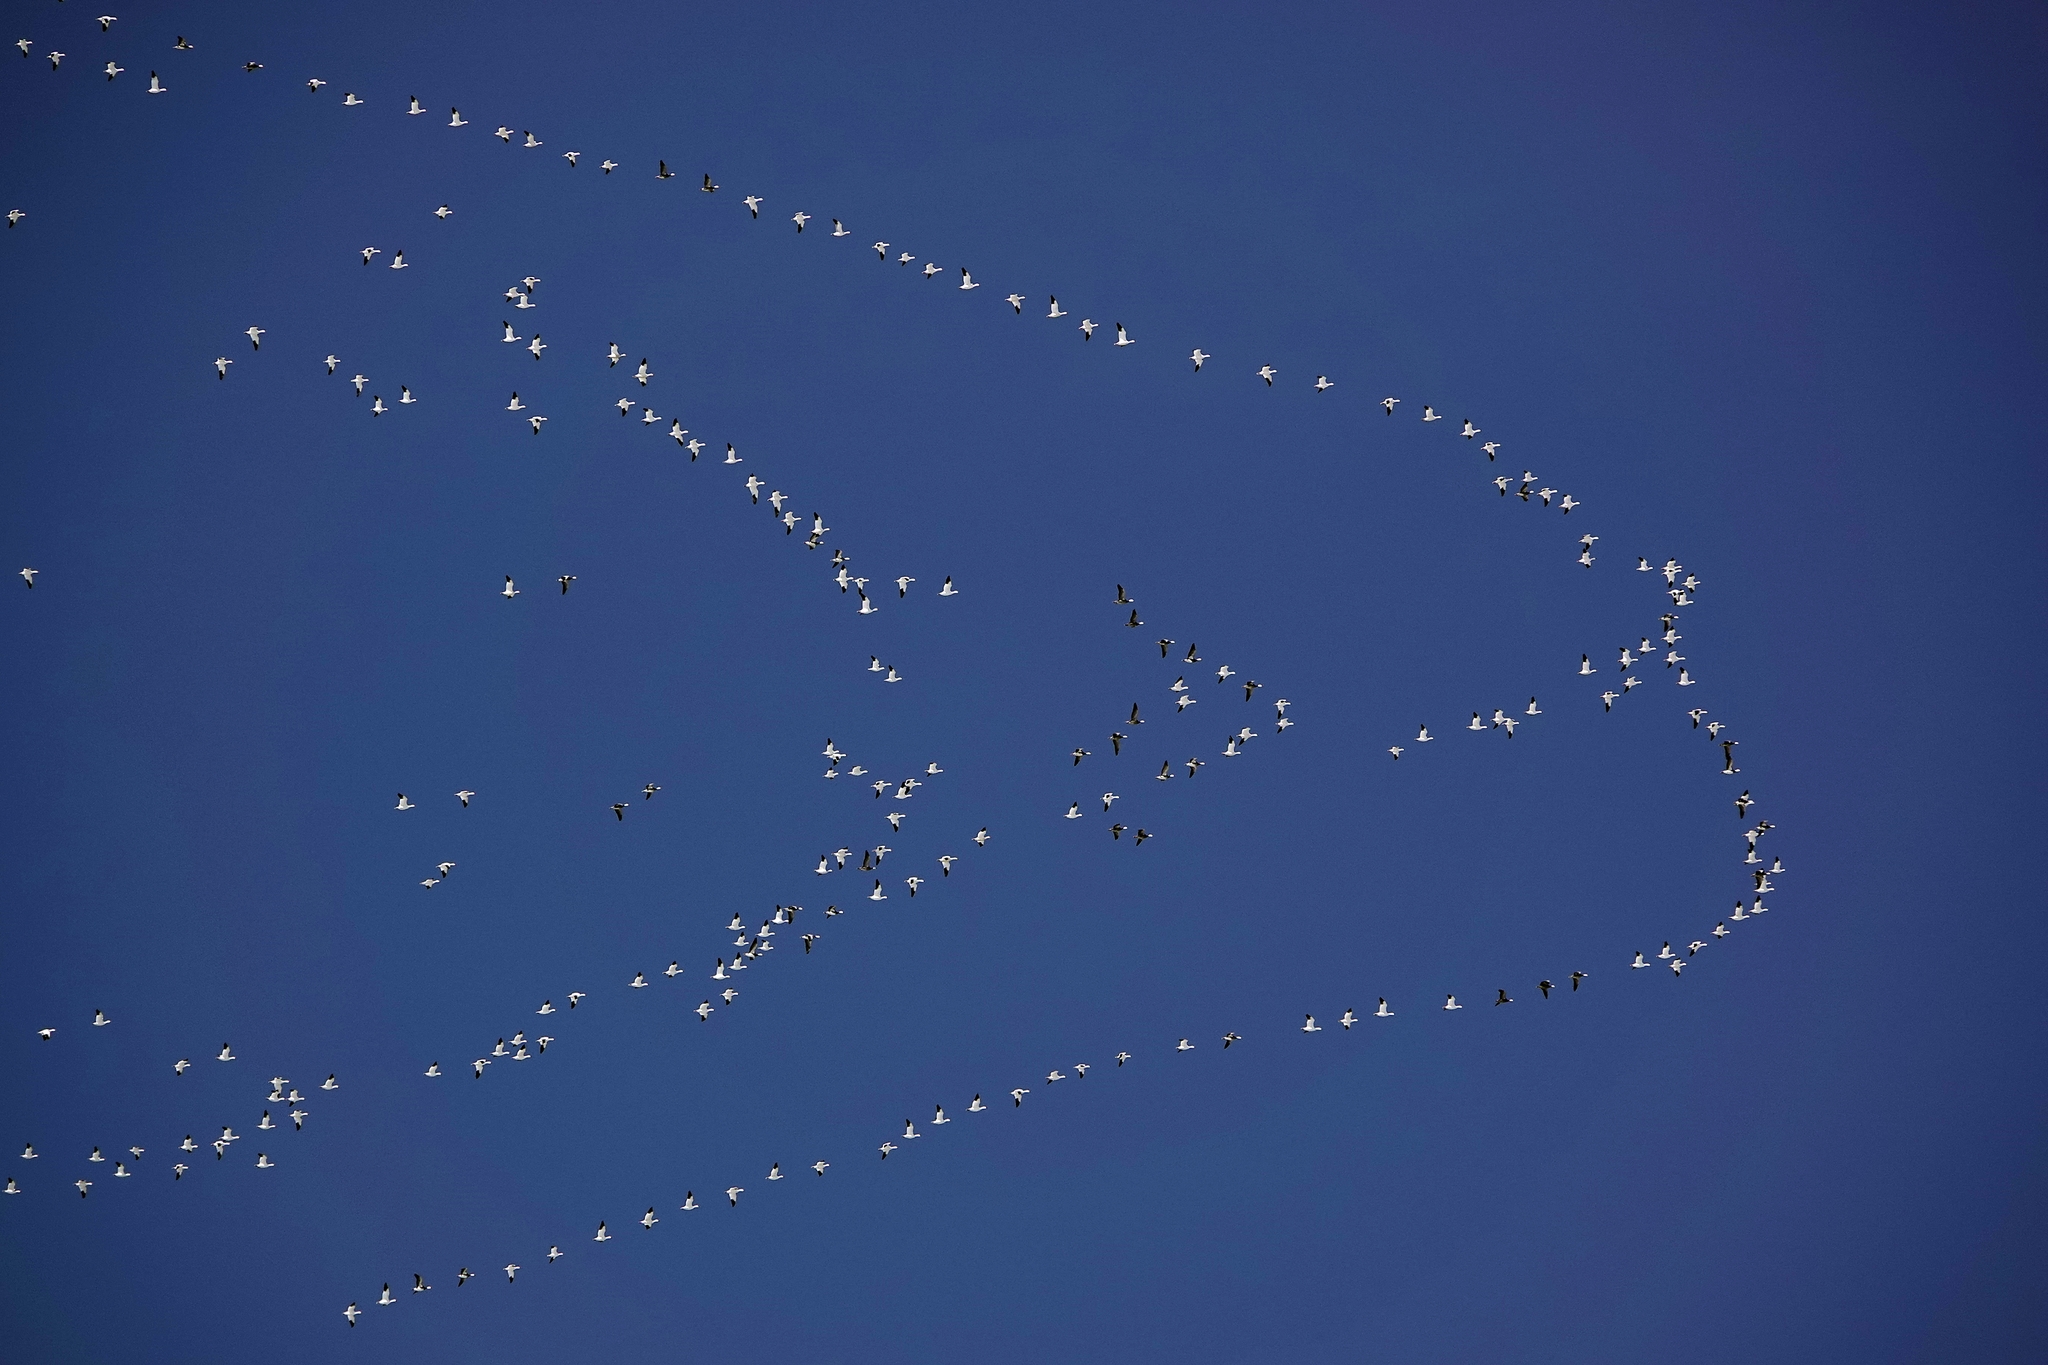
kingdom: Animalia
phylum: Chordata
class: Aves
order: Anseriformes
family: Anatidae
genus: Anser
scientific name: Anser caerulescens
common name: Snow goose
